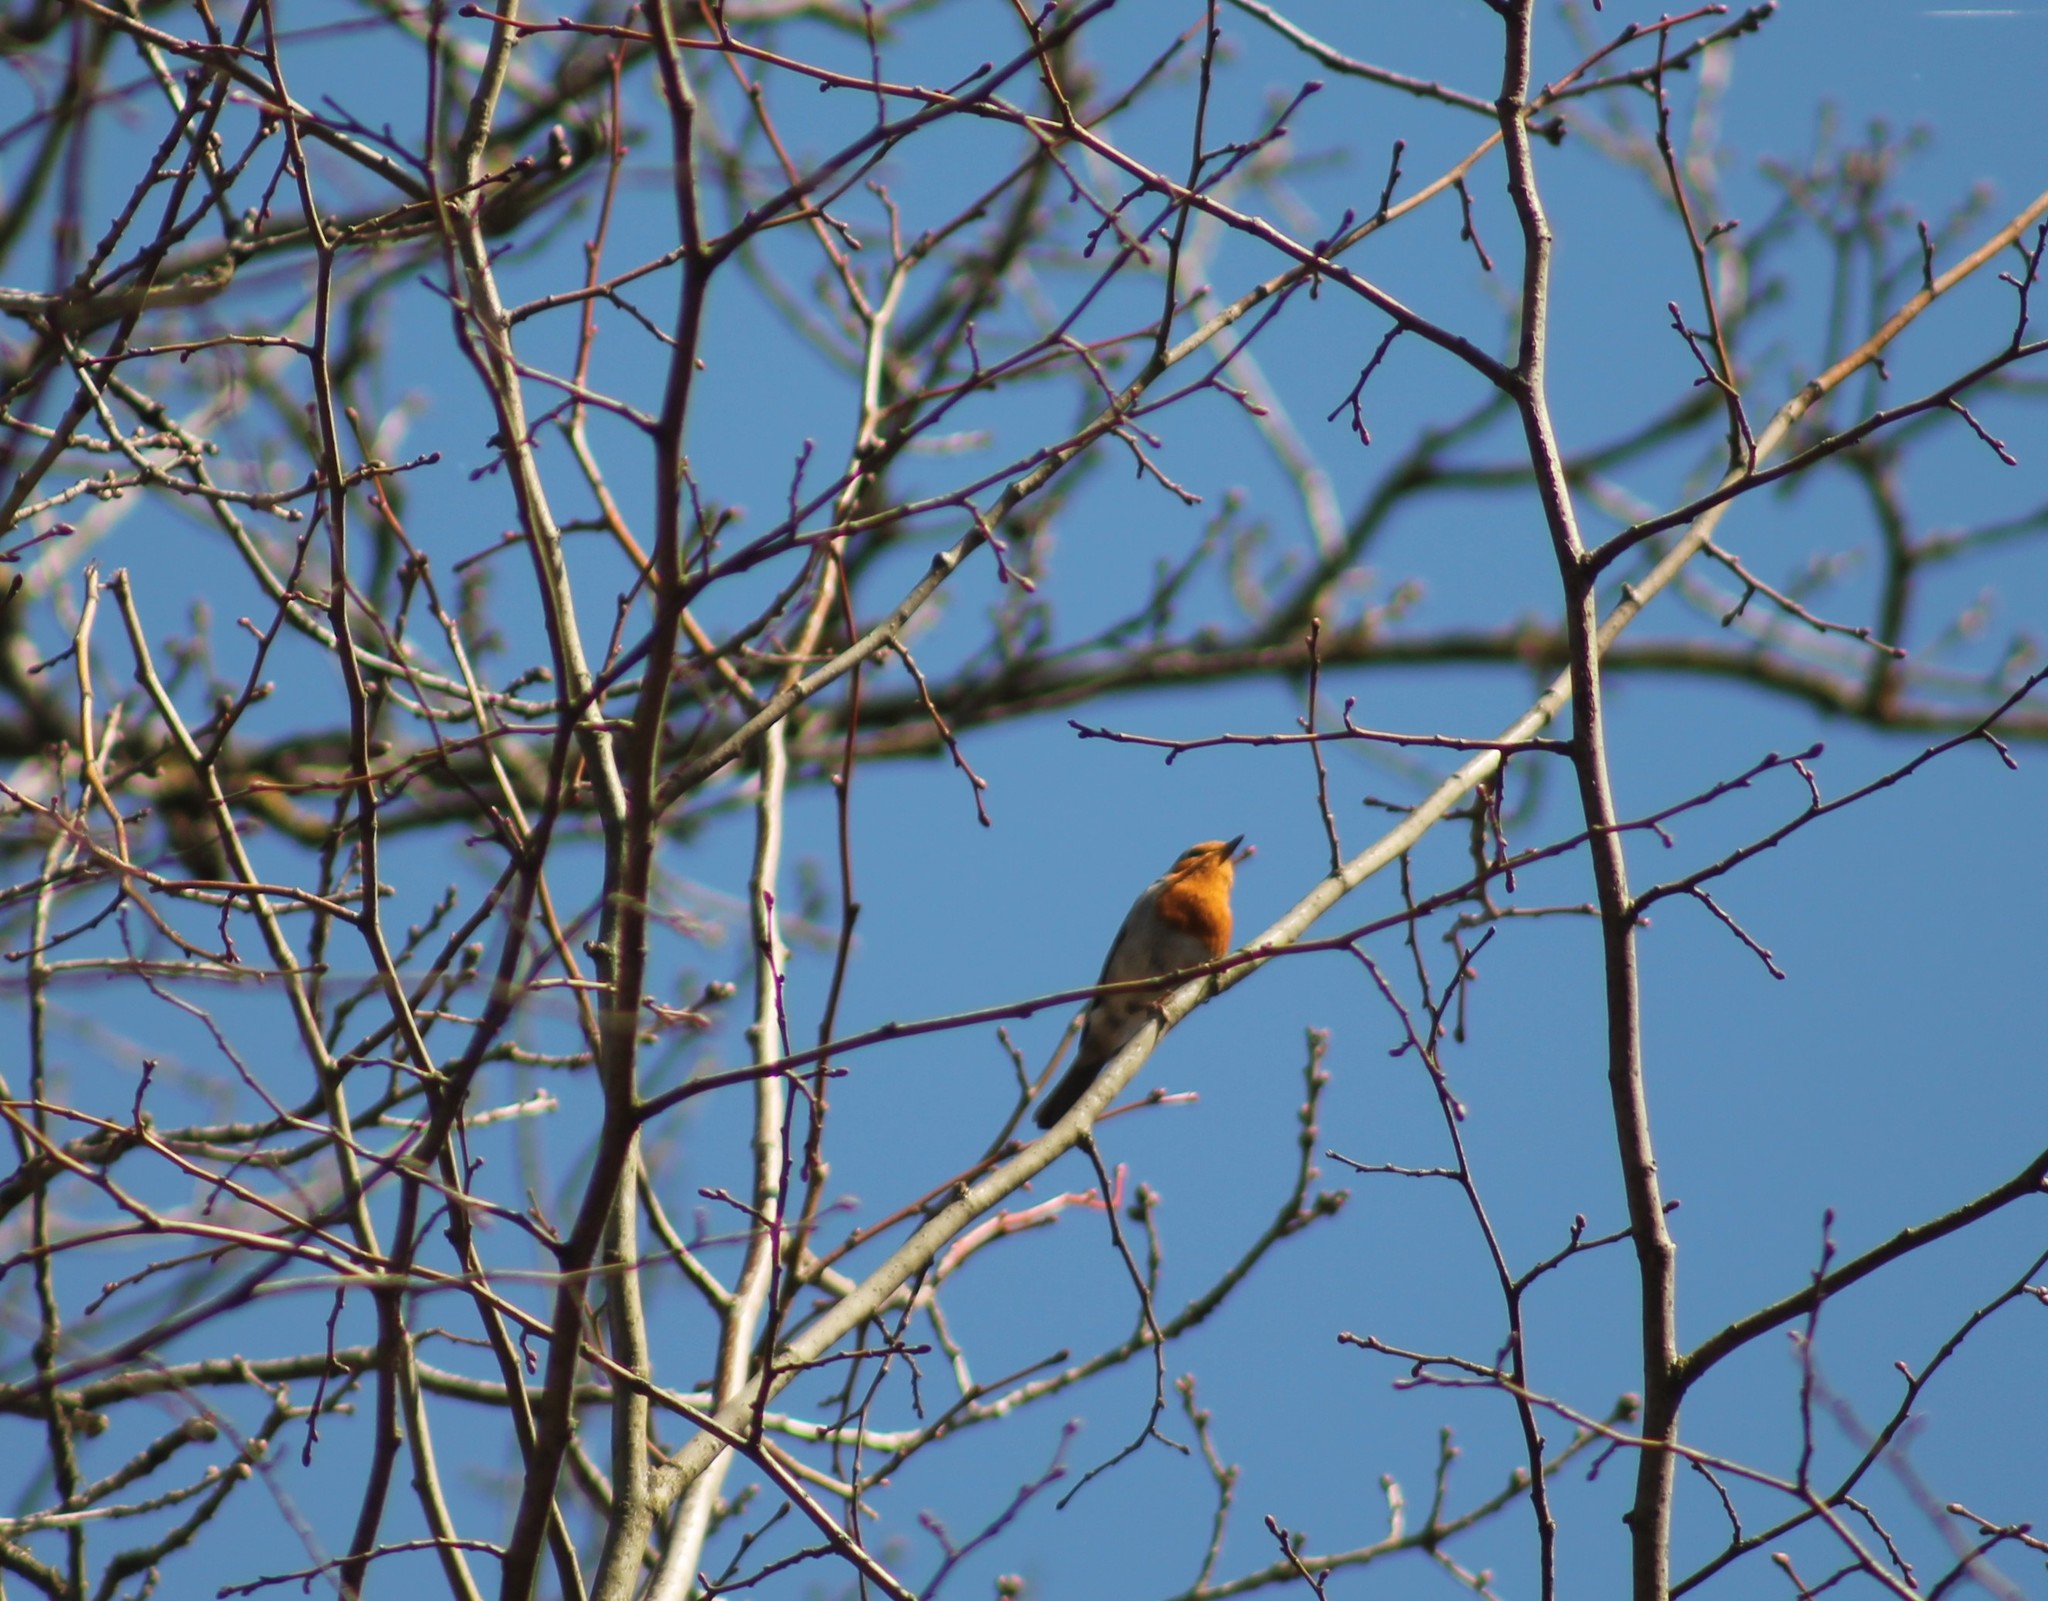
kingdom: Animalia
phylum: Chordata
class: Aves
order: Passeriformes
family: Muscicapidae
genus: Erithacus
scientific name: Erithacus rubecula
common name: European robin
